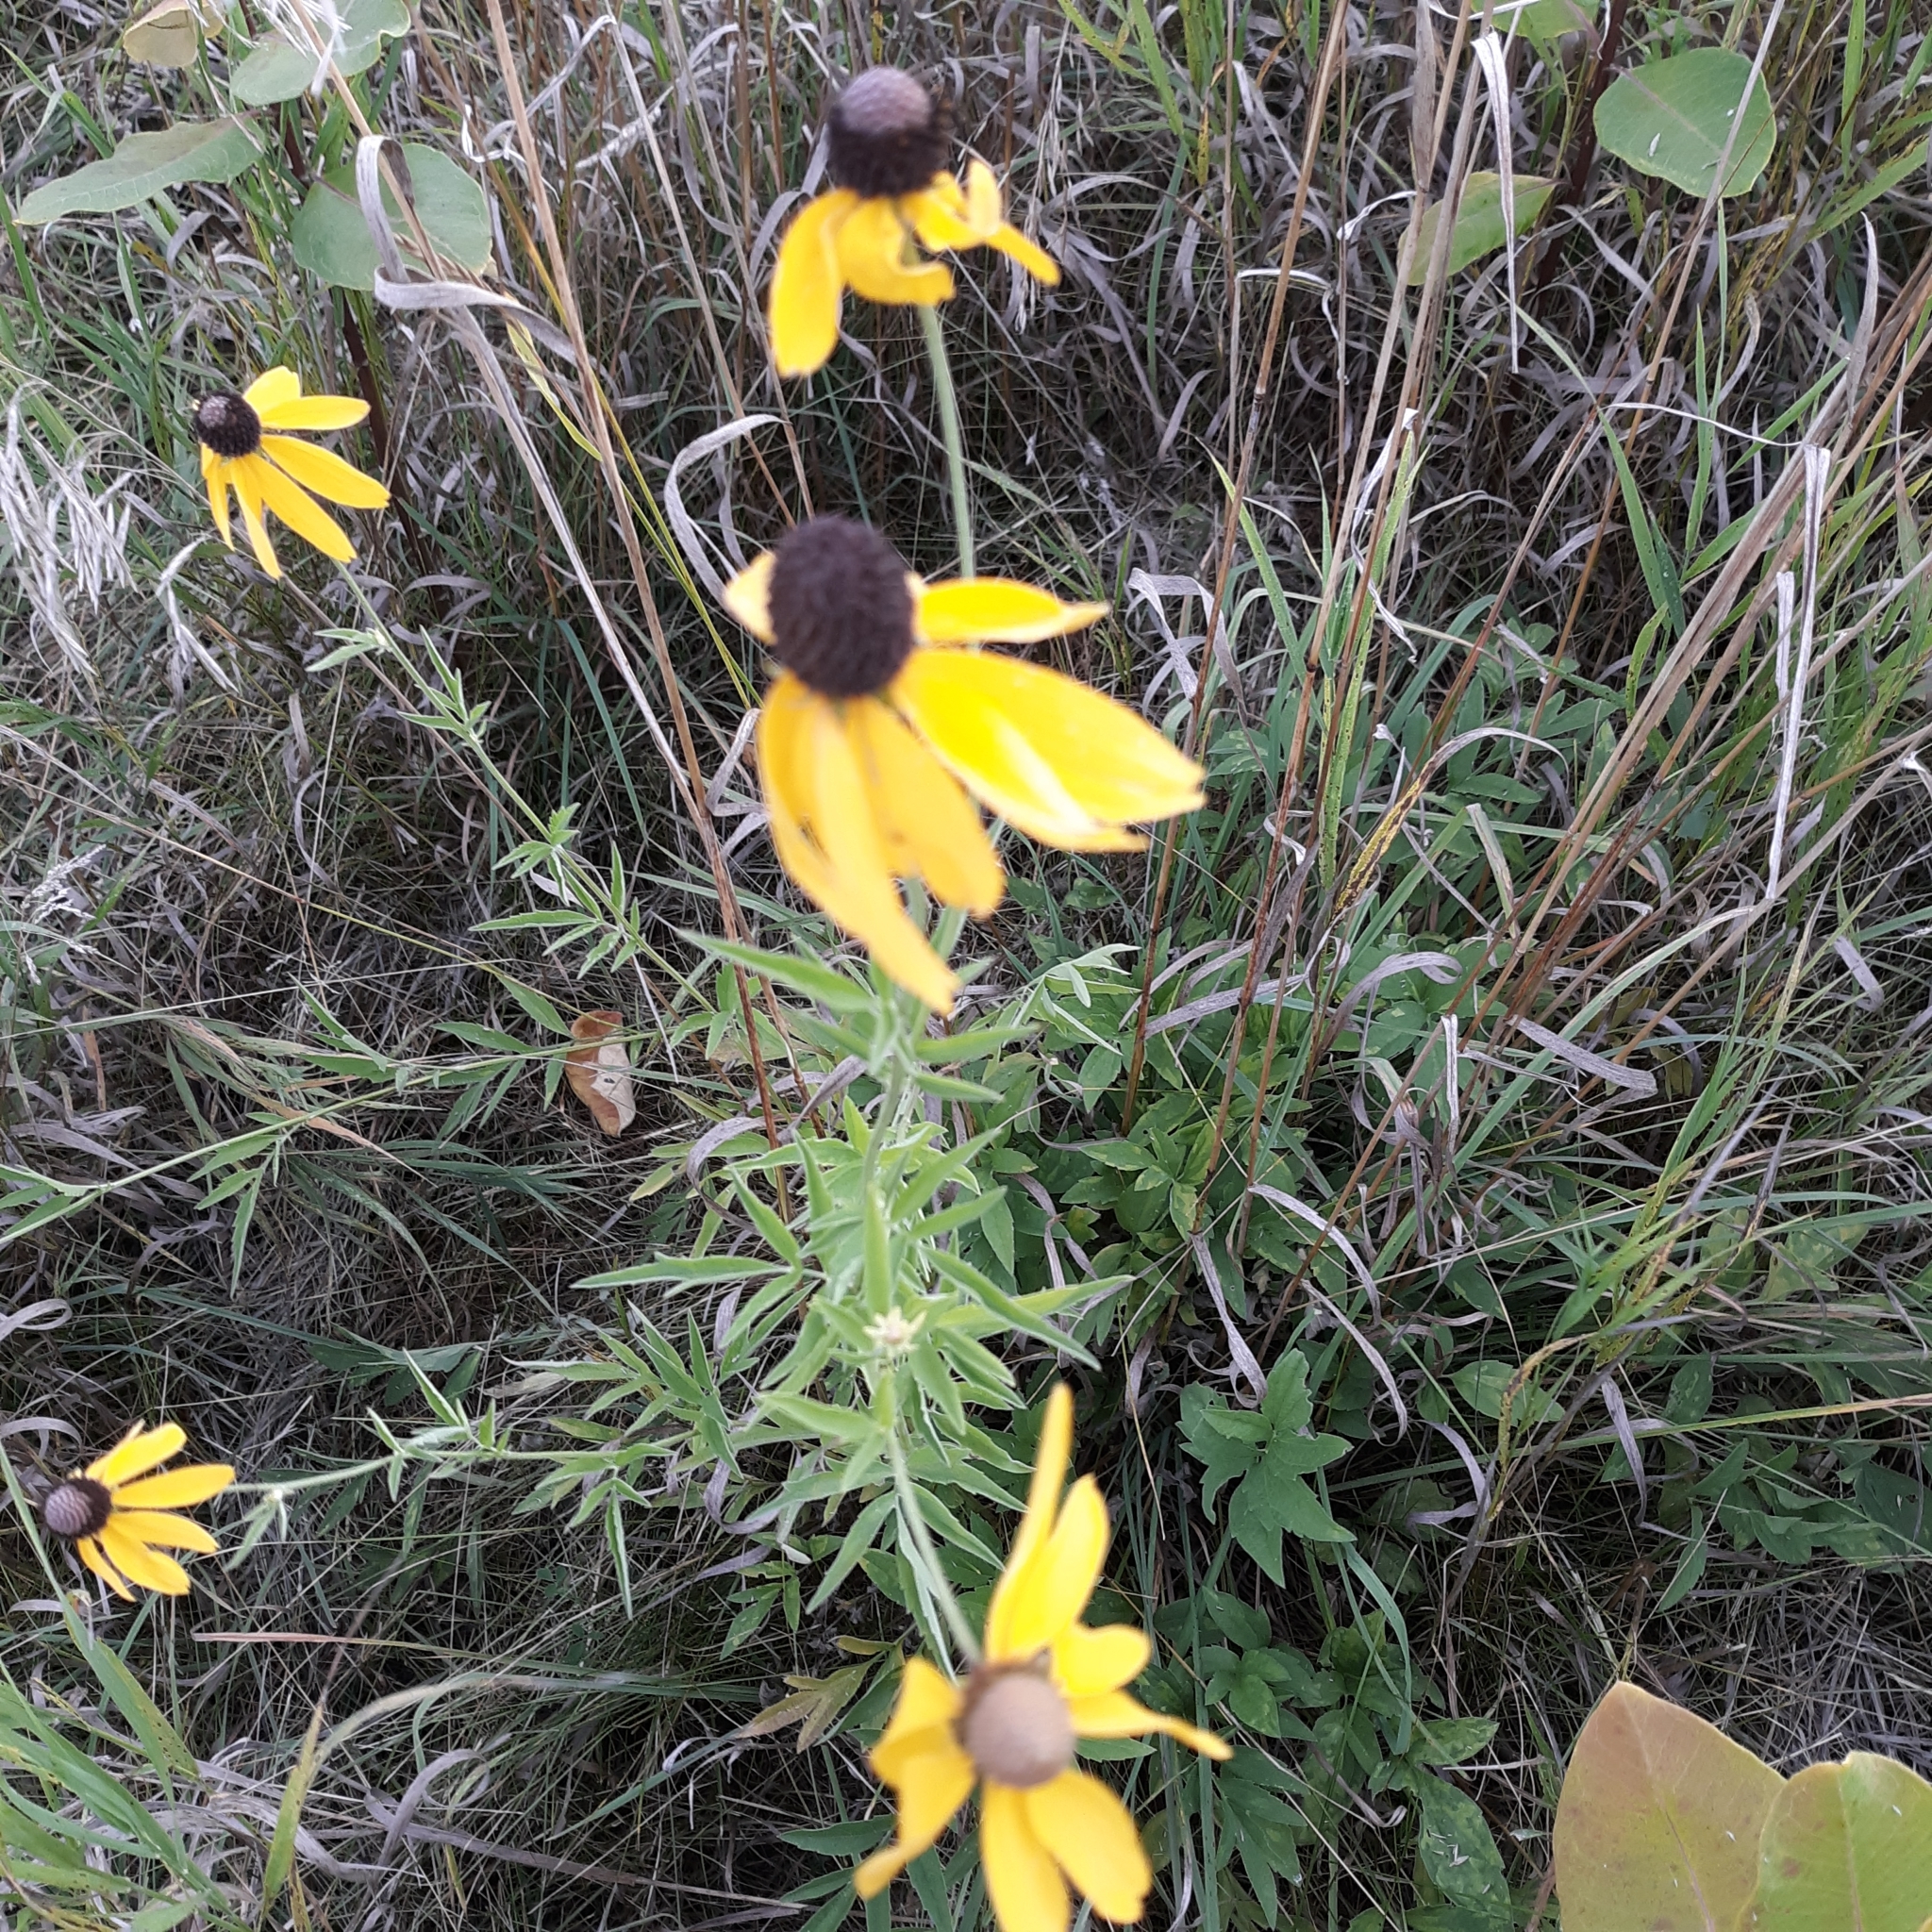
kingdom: Plantae
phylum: Tracheophyta
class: Magnoliopsida
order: Asterales
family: Asteraceae
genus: Ratibida
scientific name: Ratibida pinnata
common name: Drooping prairie-coneflower
